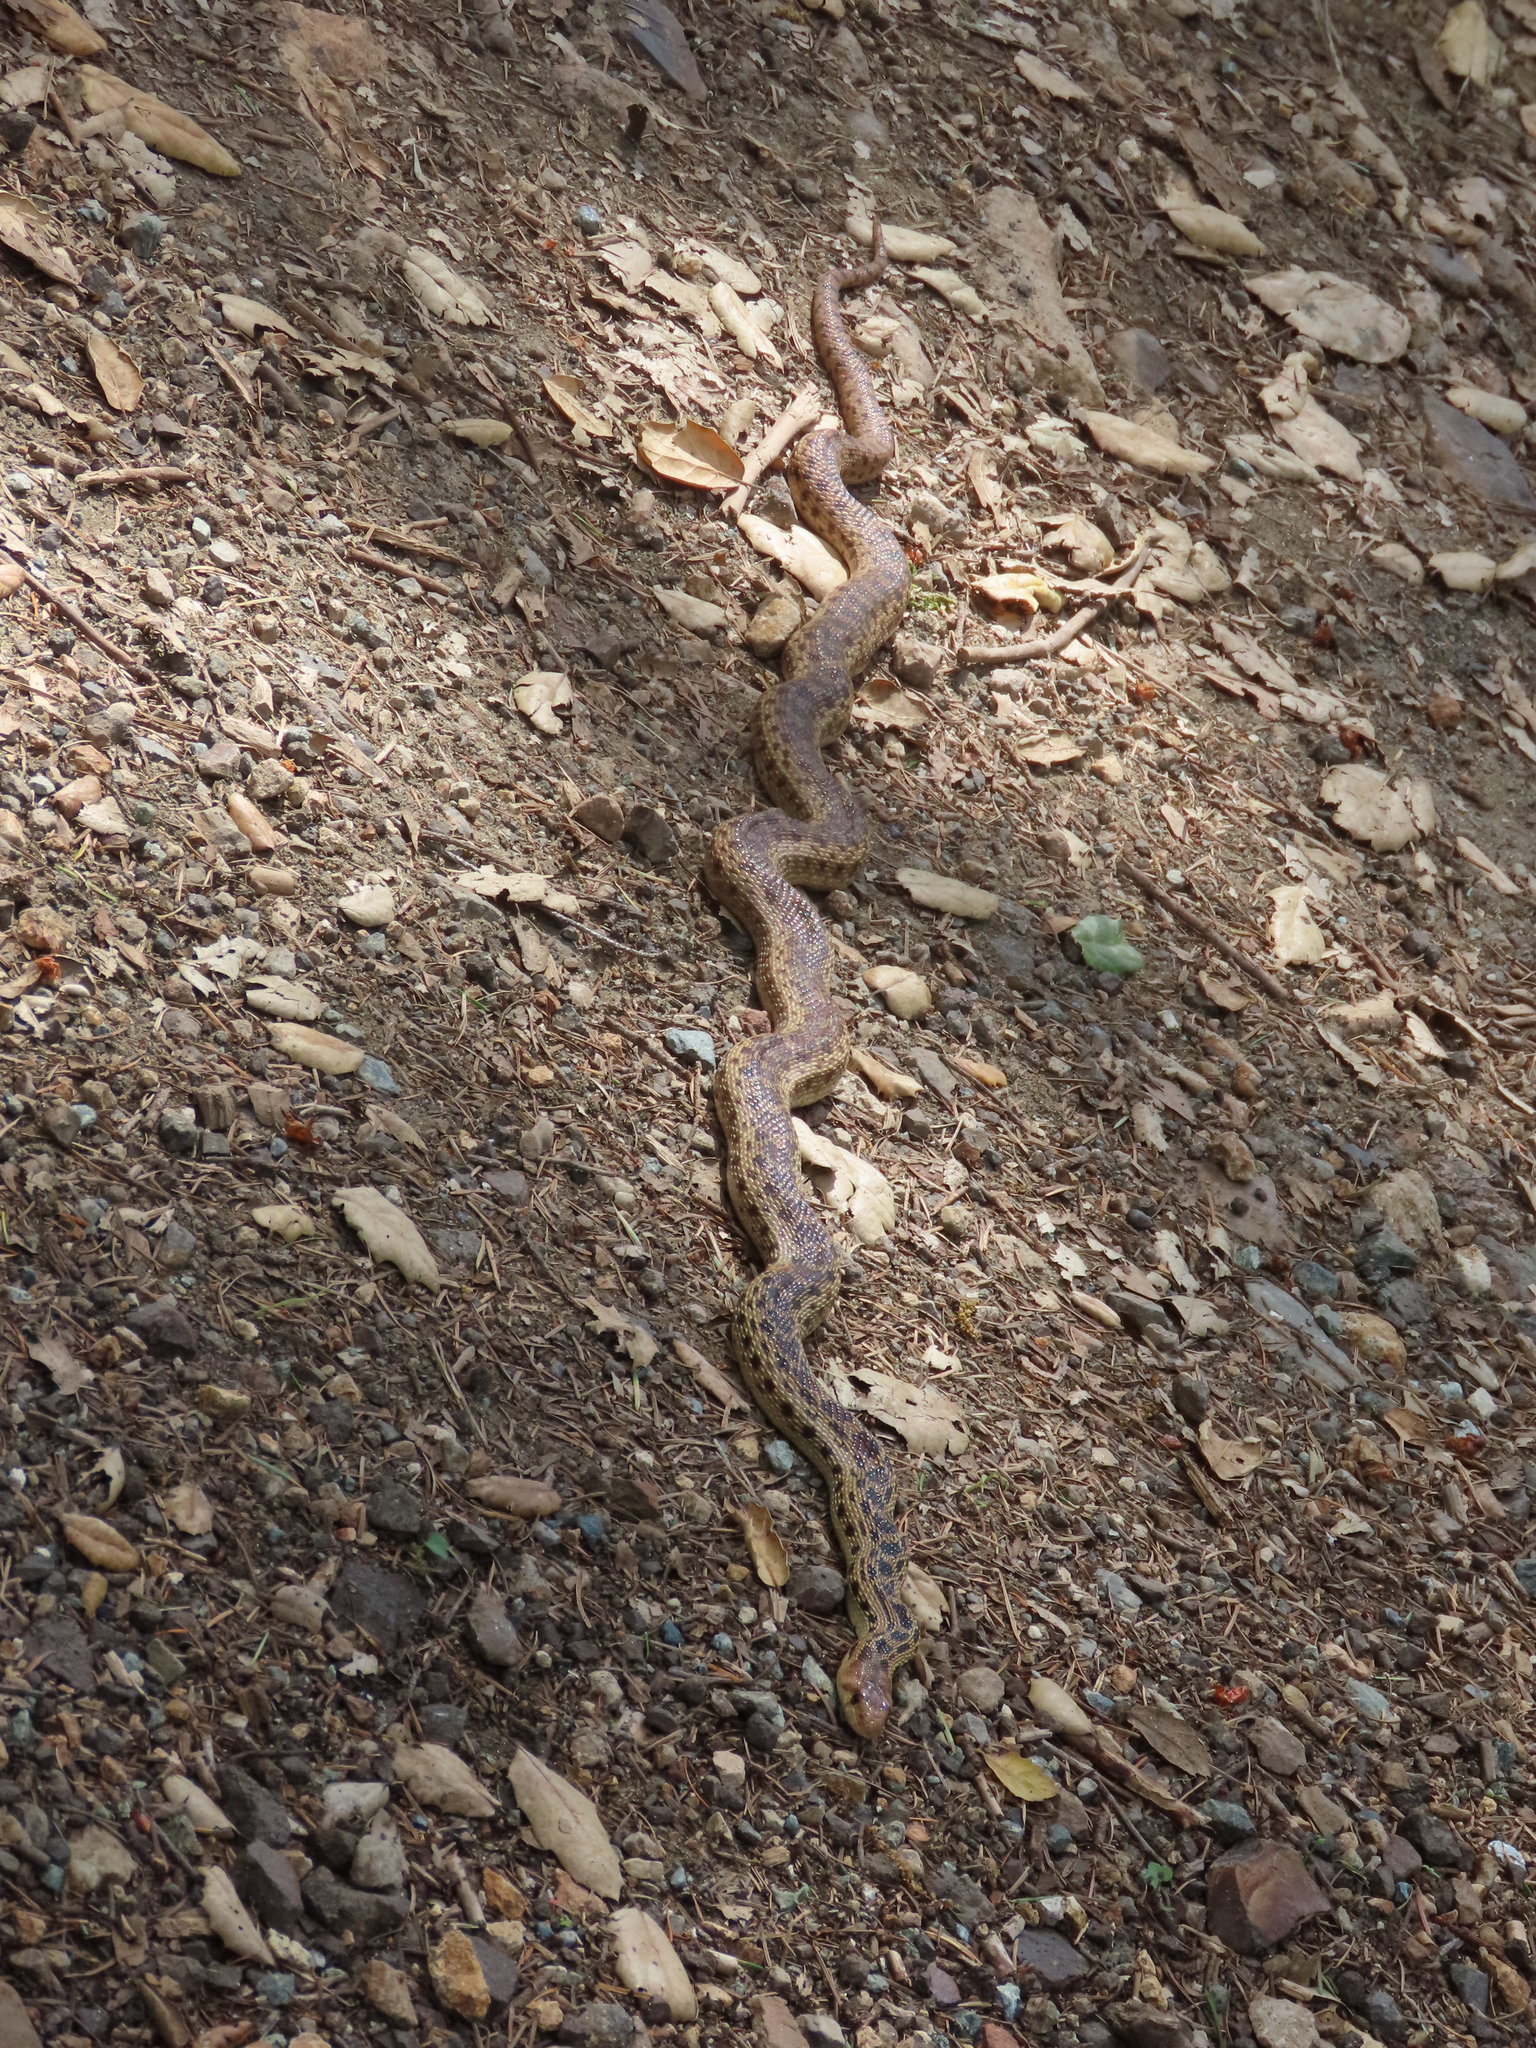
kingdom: Animalia
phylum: Chordata
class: Squamata
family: Colubridae
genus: Pituophis
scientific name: Pituophis catenifer
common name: Gopher snake
